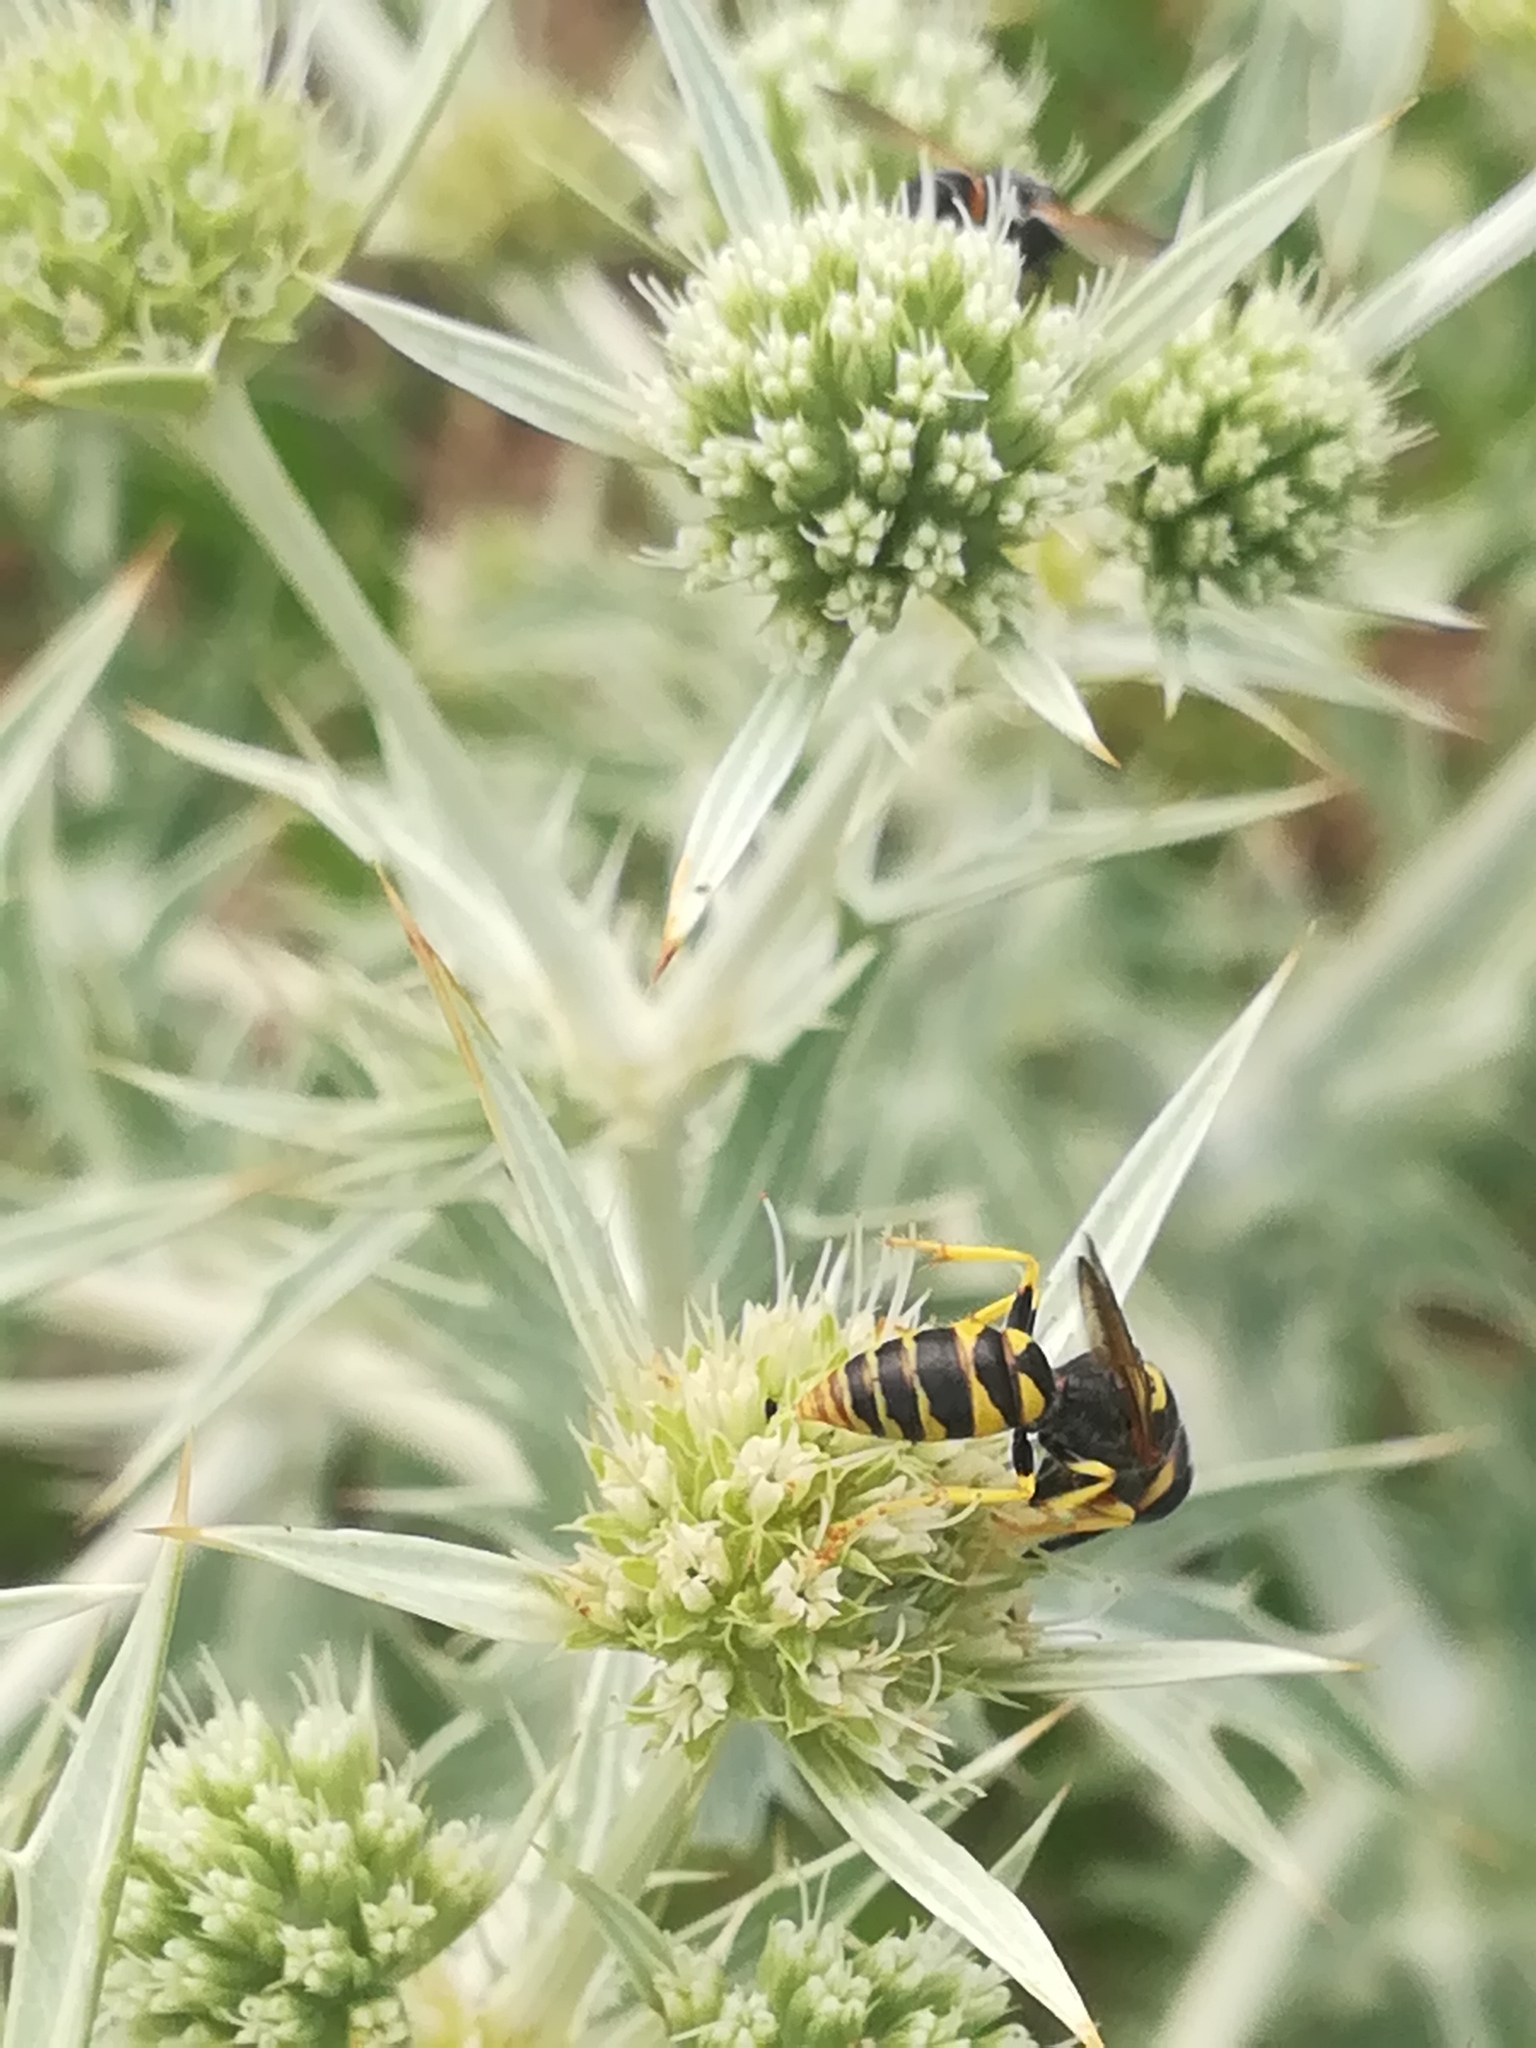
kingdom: Animalia
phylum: Arthropoda
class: Insecta
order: Hymenoptera
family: Crabronidae
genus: Philanthus
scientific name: Philanthus triangulum
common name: Bee wolf
